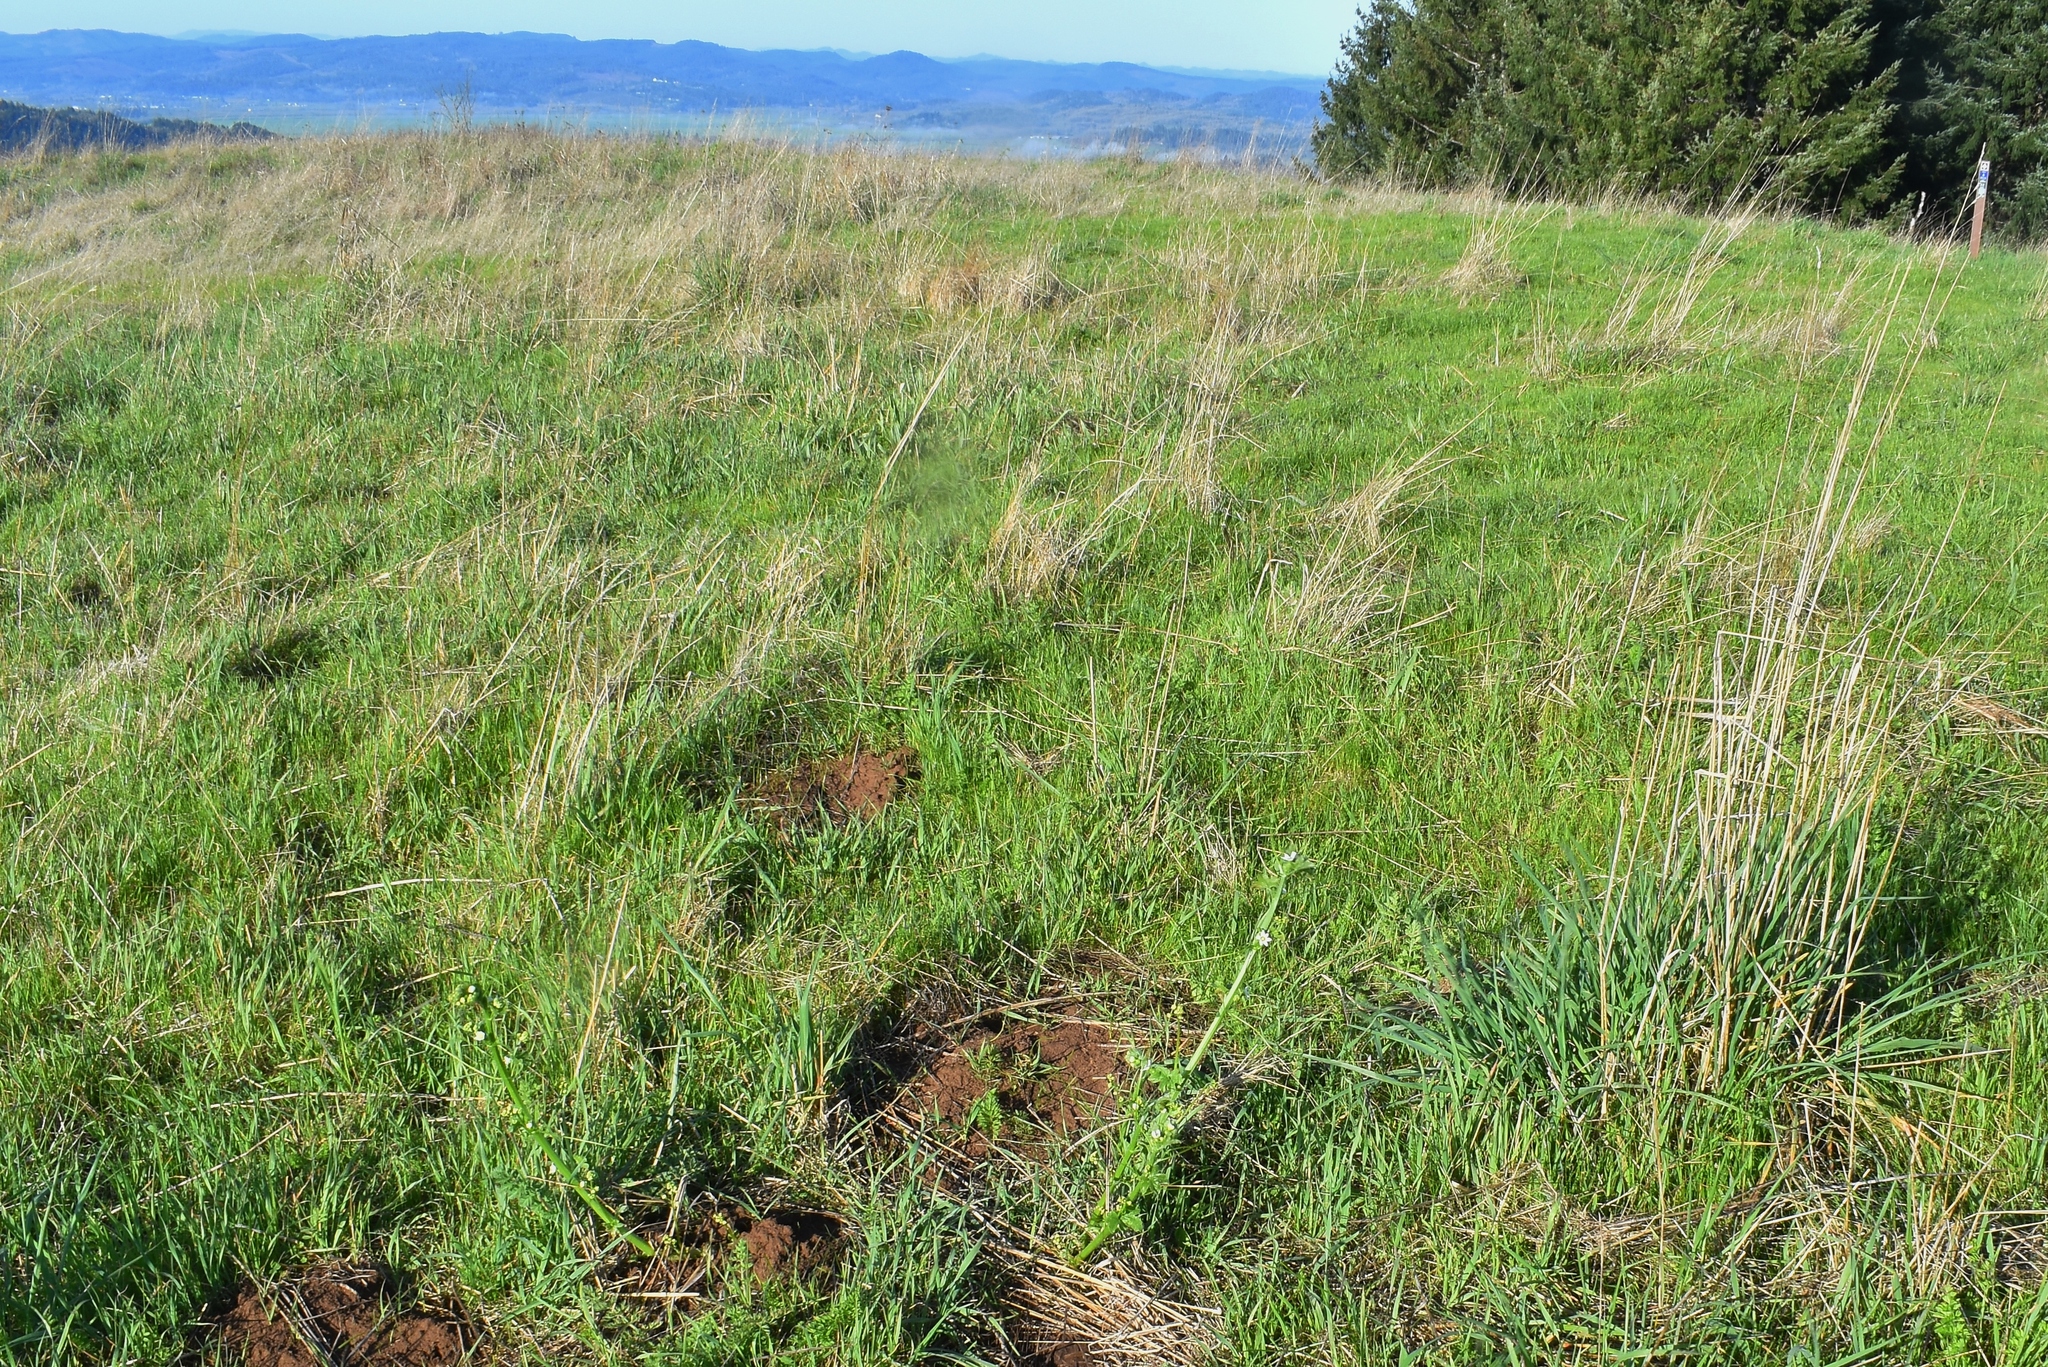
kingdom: Plantae
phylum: Tracheophyta
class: Magnoliopsida
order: Cucurbitales
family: Cucurbitaceae
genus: Marah
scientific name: Marah oregana
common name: Coastal manroot
